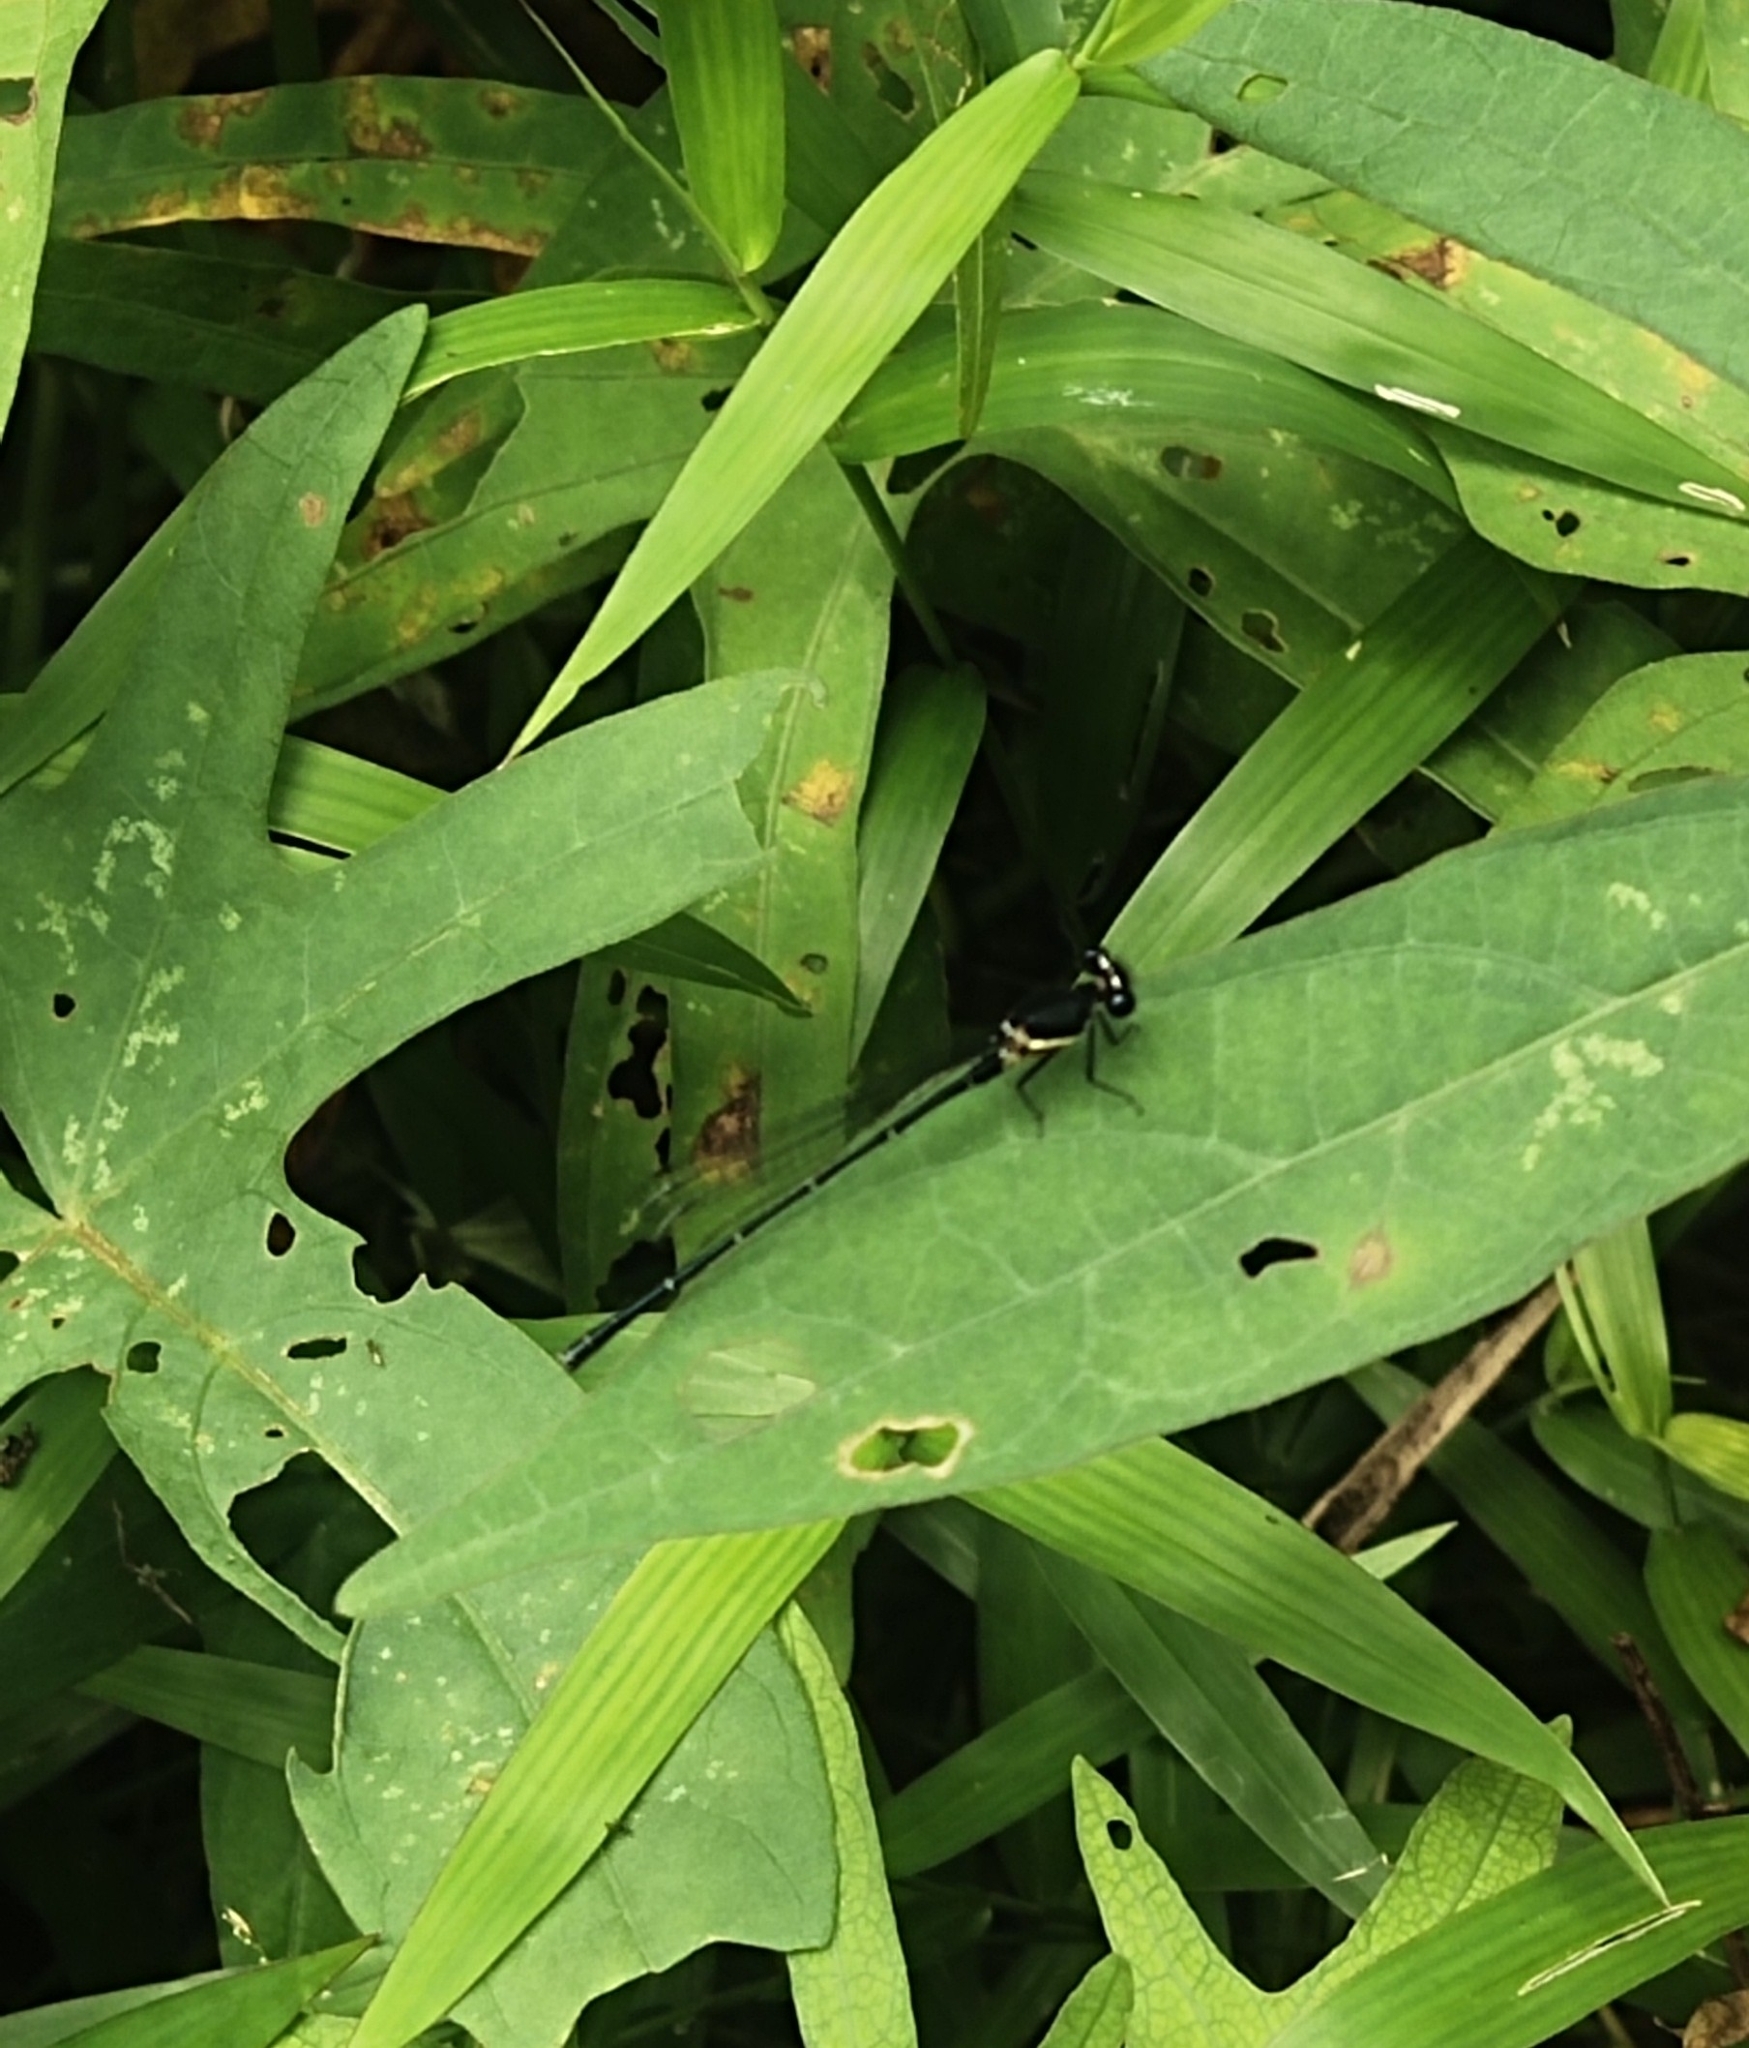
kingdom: Animalia
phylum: Arthropoda
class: Insecta
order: Odonata
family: Platycnemididae
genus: Onychargia
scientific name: Onychargia atrocyana
